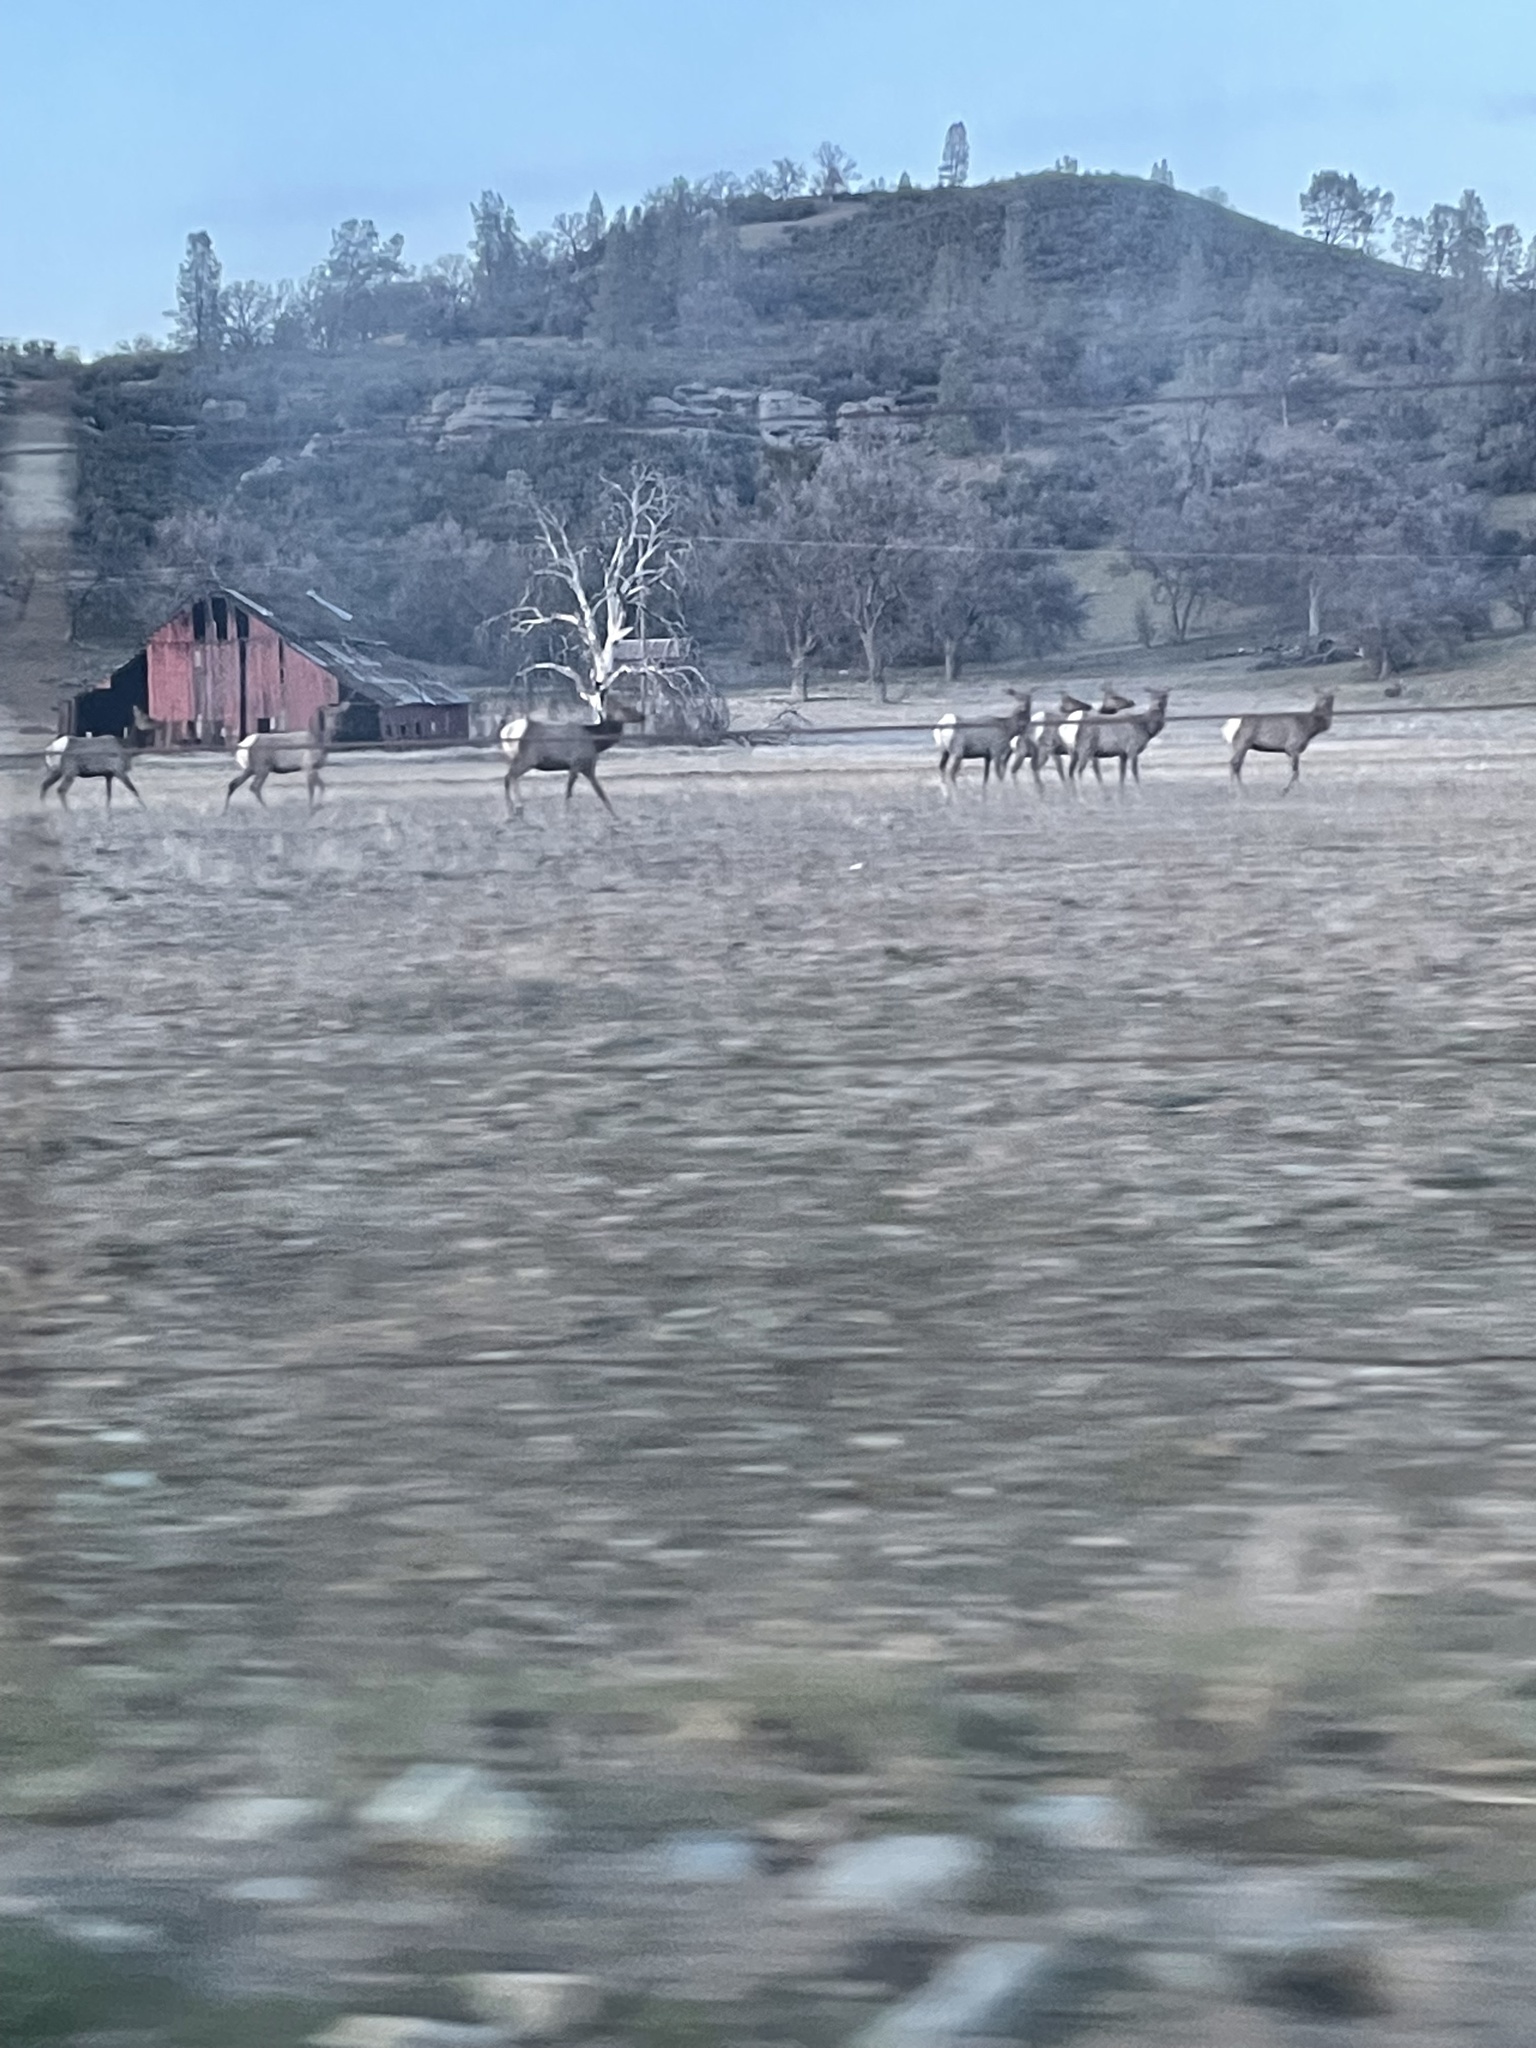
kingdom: Animalia
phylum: Chordata
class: Mammalia
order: Artiodactyla
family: Cervidae
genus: Cervus
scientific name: Cervus elaphus
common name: Red deer
